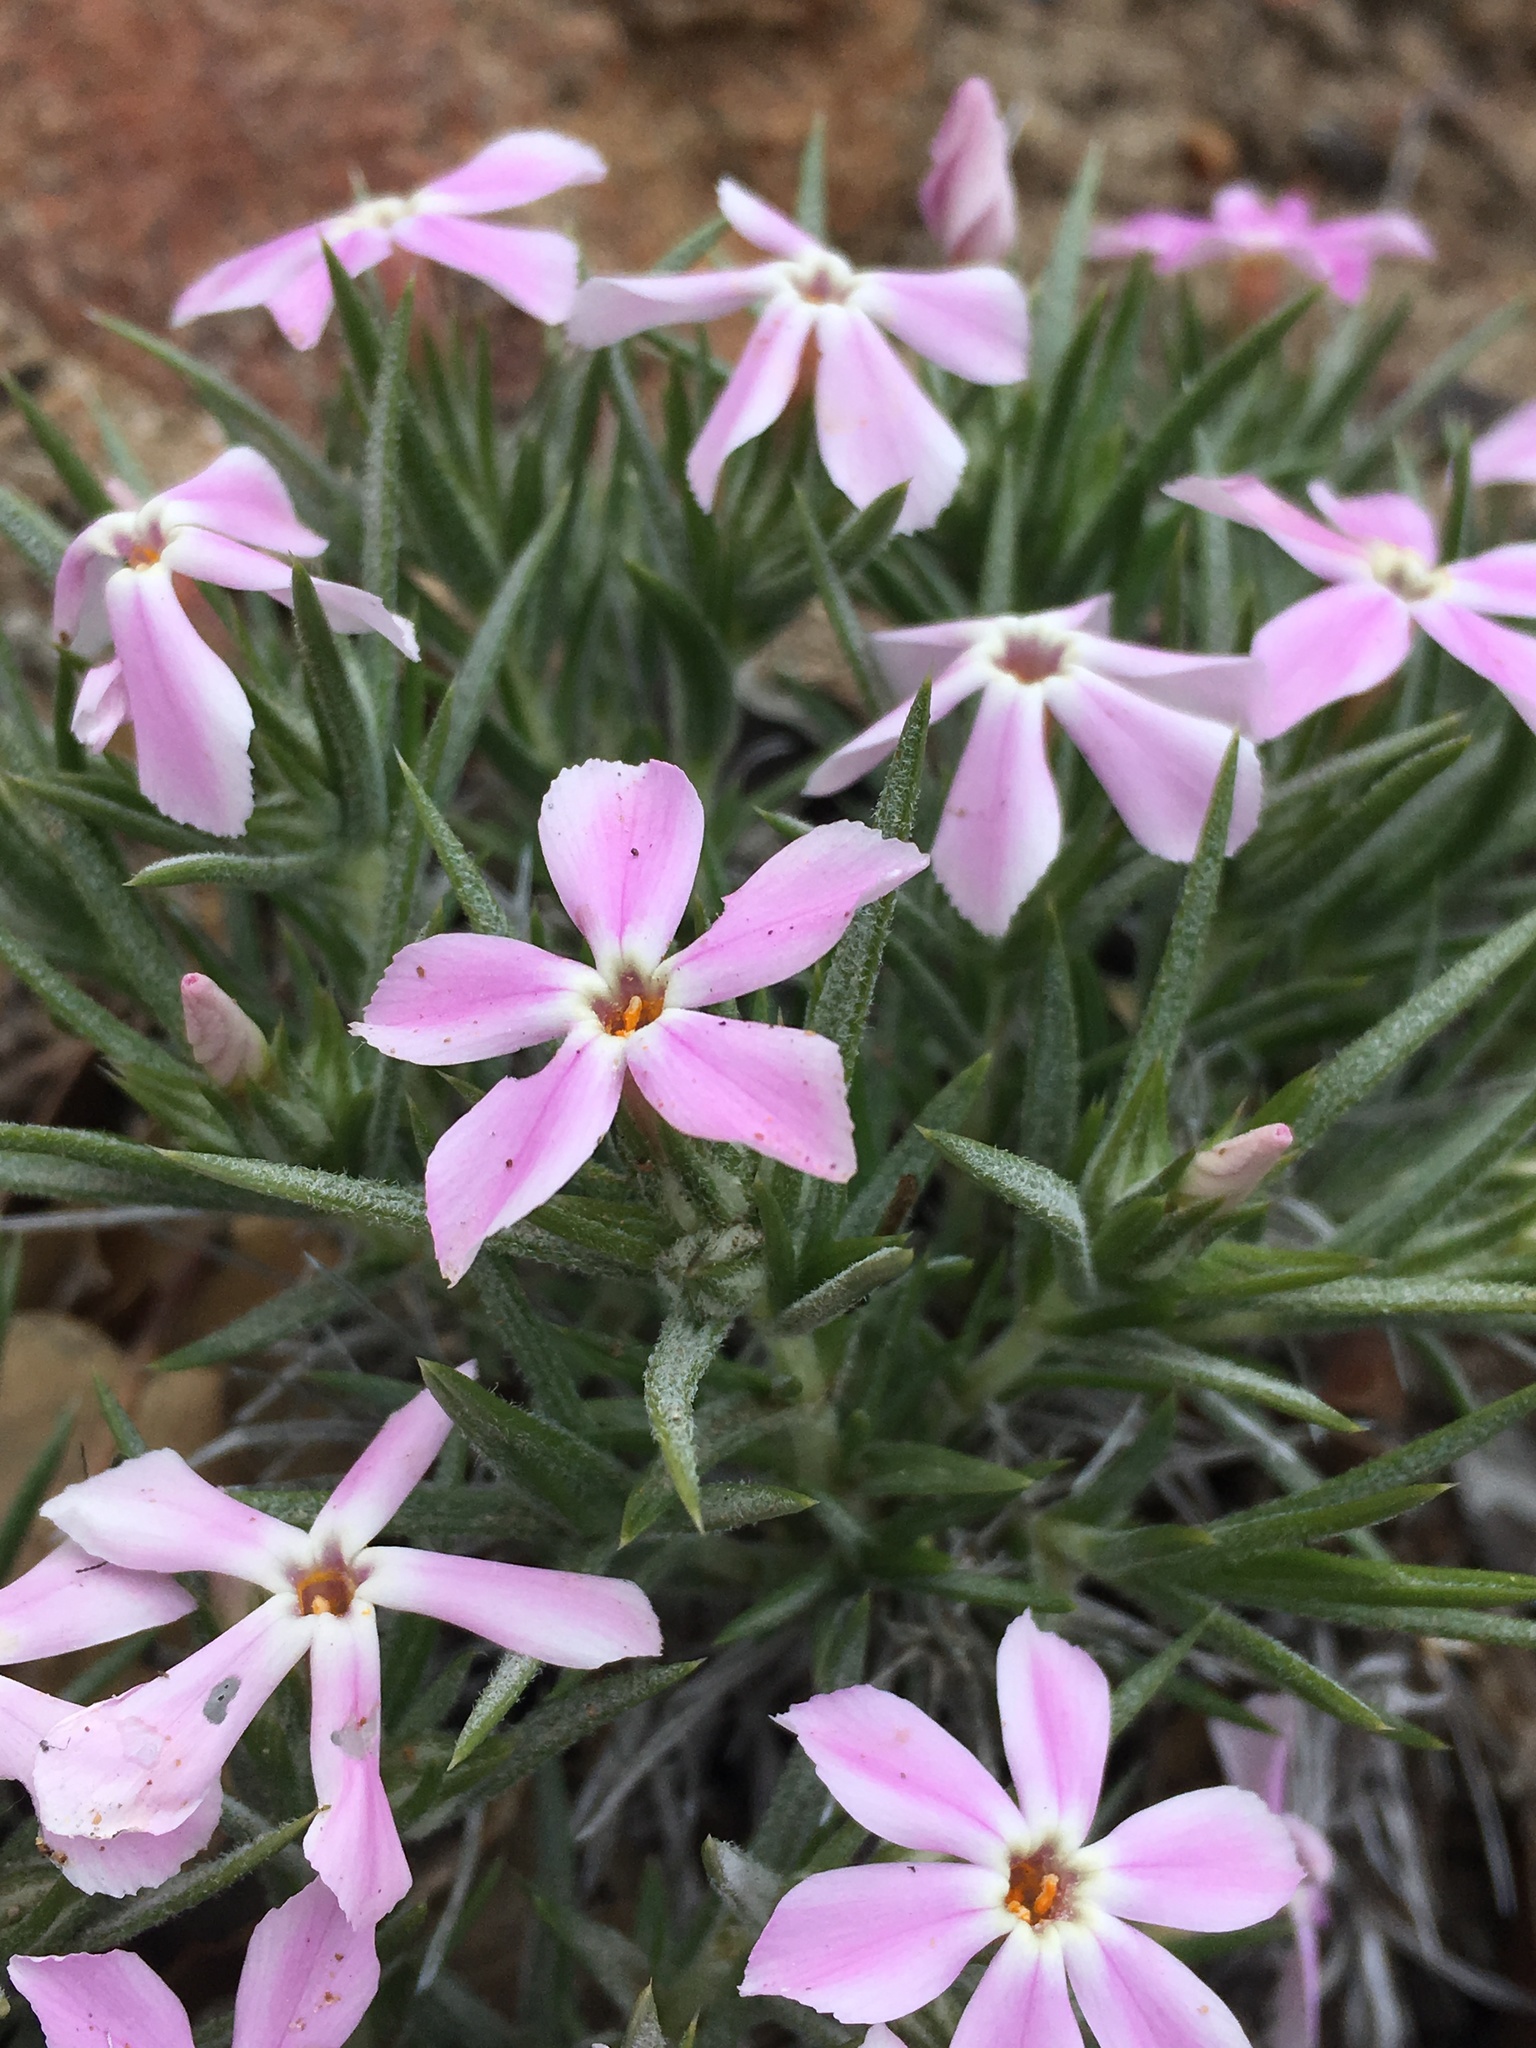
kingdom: Plantae
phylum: Tracheophyta
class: Magnoliopsida
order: Ericales
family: Polemoniaceae
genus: Phlox
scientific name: Phlox austromontana
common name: Desert phlox
